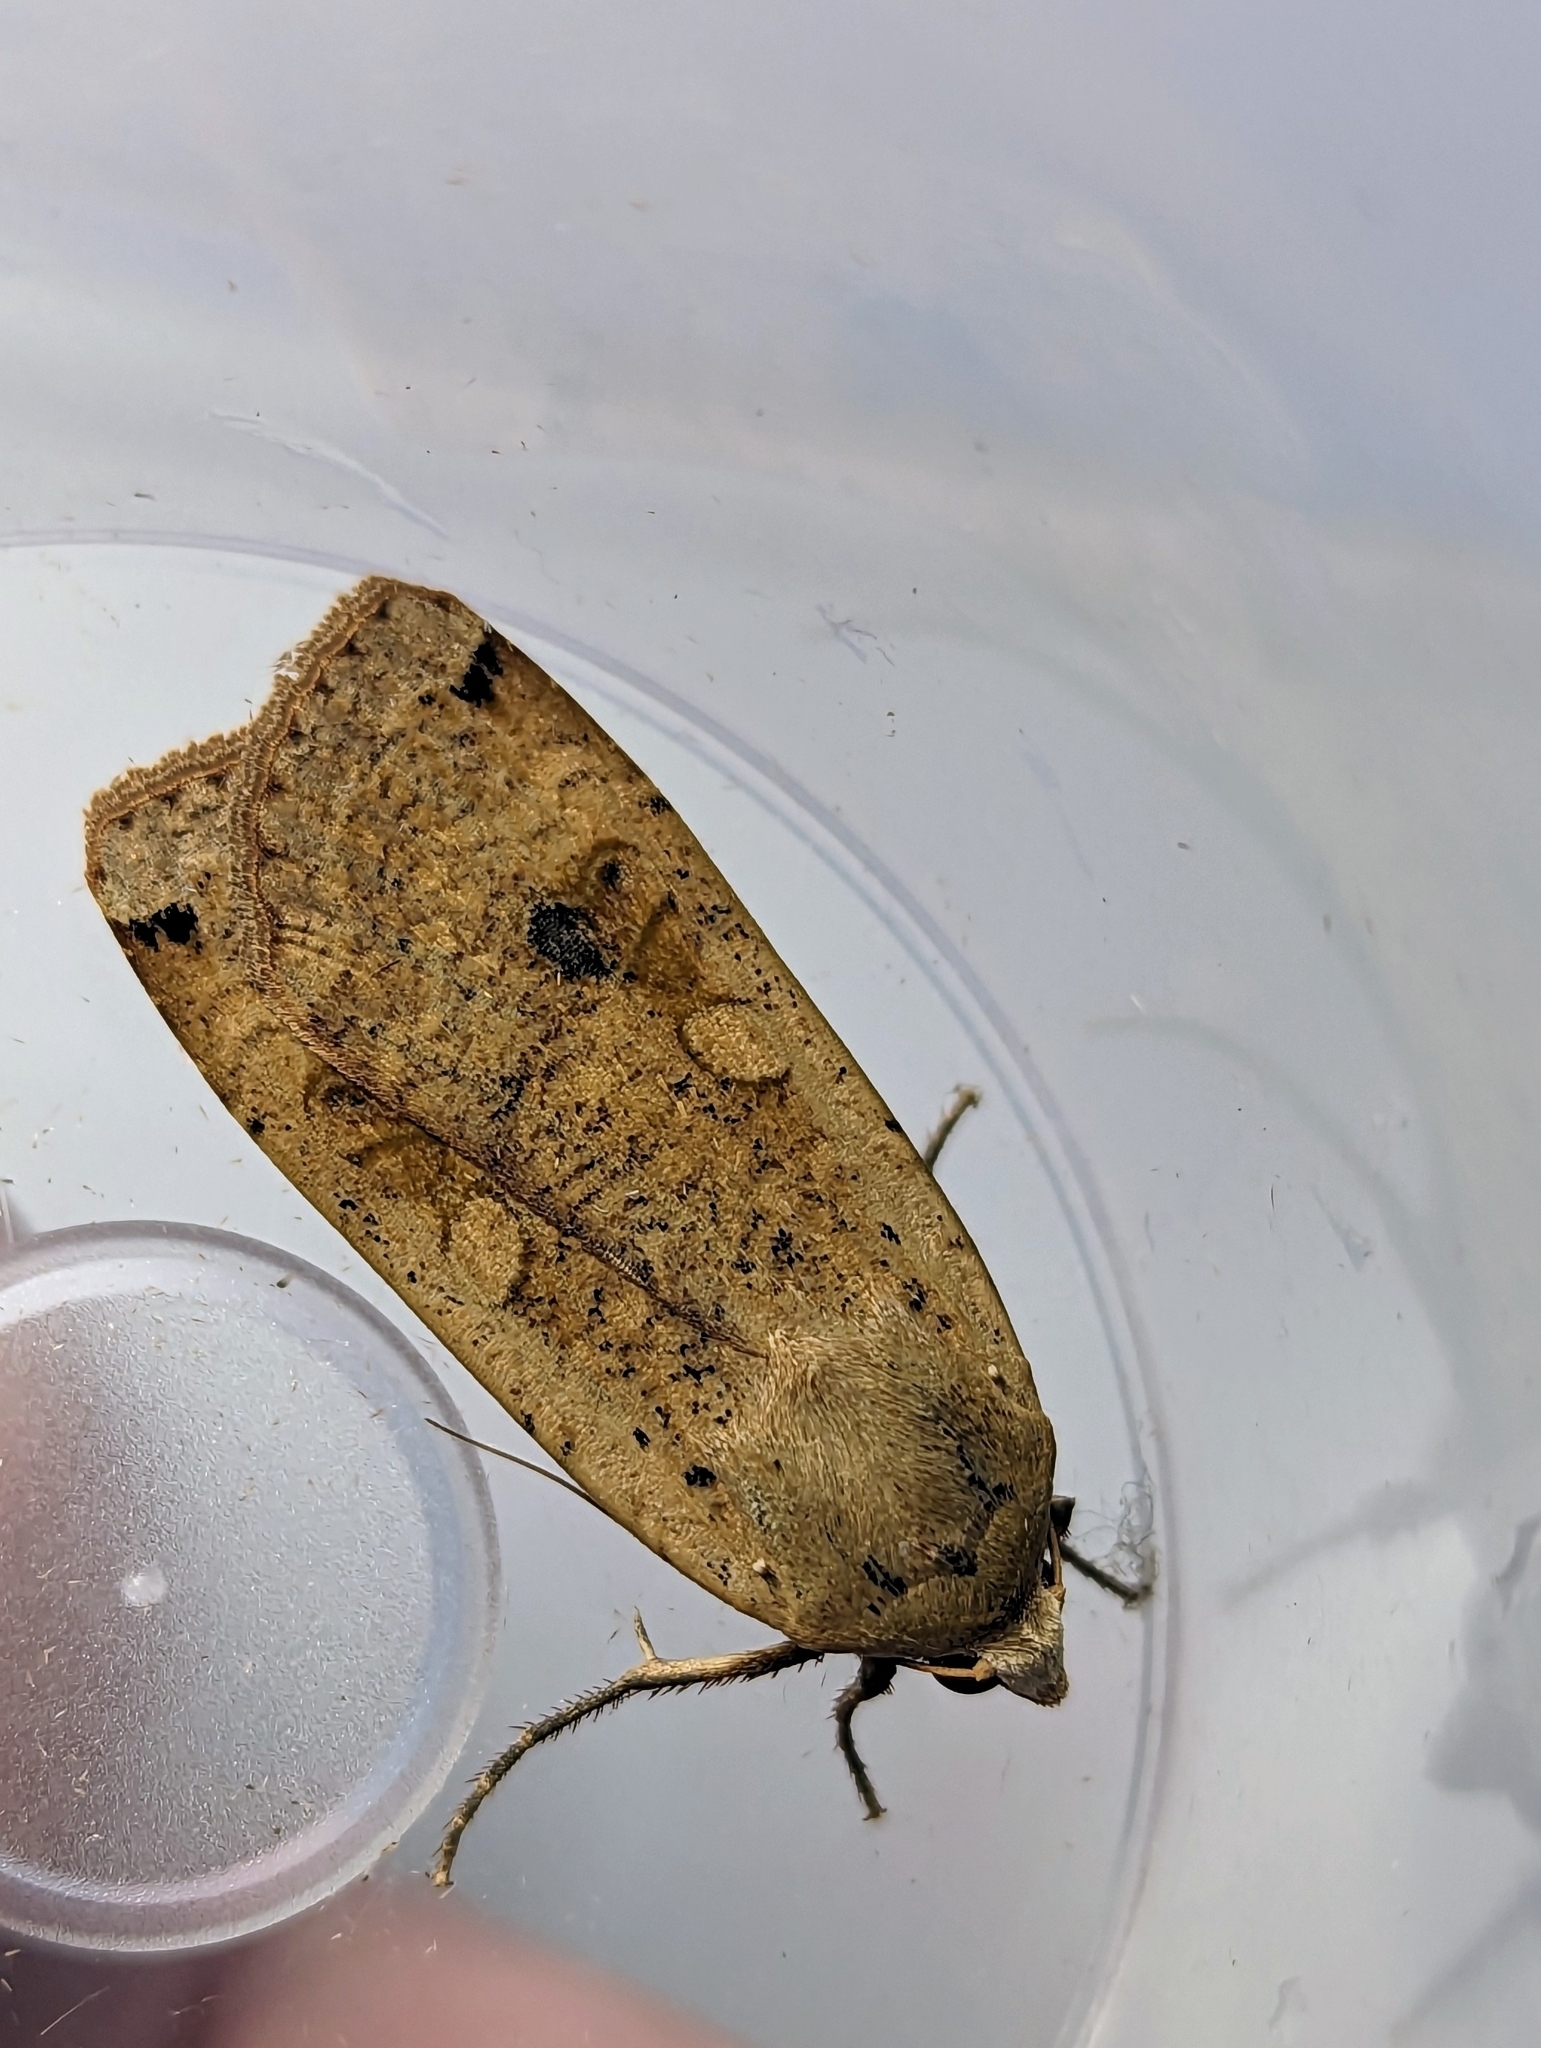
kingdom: Animalia
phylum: Arthropoda
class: Insecta
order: Lepidoptera
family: Noctuidae
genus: Noctua
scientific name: Noctua pronuba
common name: Large yellow underwing
